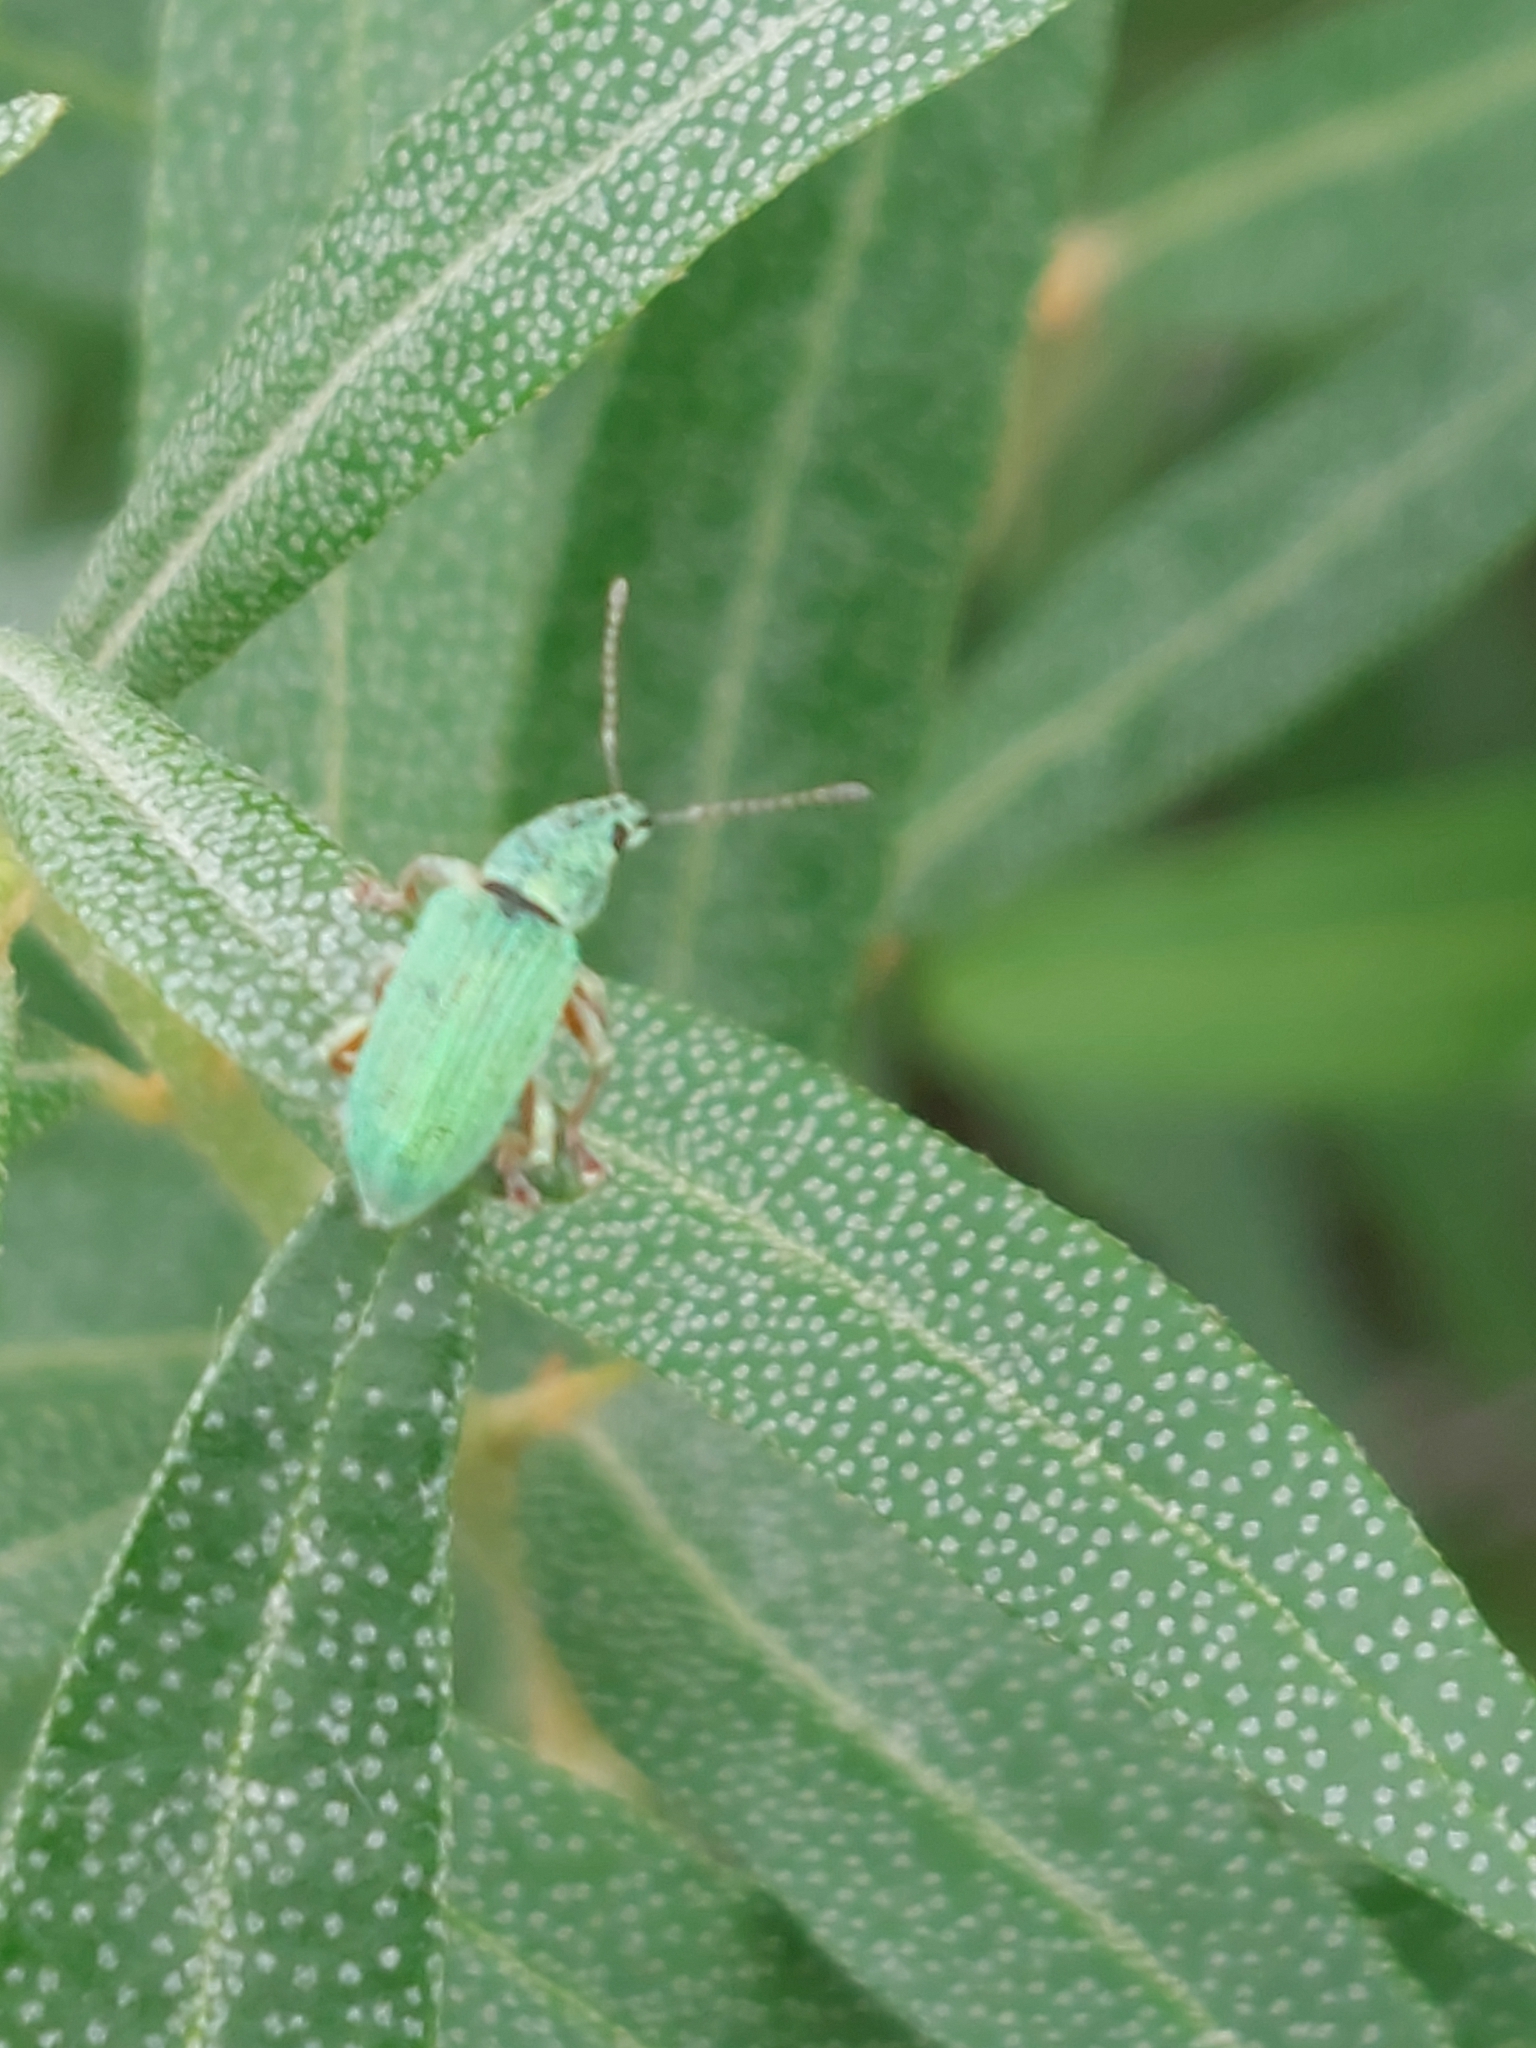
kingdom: Animalia
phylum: Arthropoda
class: Insecta
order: Coleoptera
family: Curculionidae
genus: Polydrusus
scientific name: Polydrusus formosus
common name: Weevil
